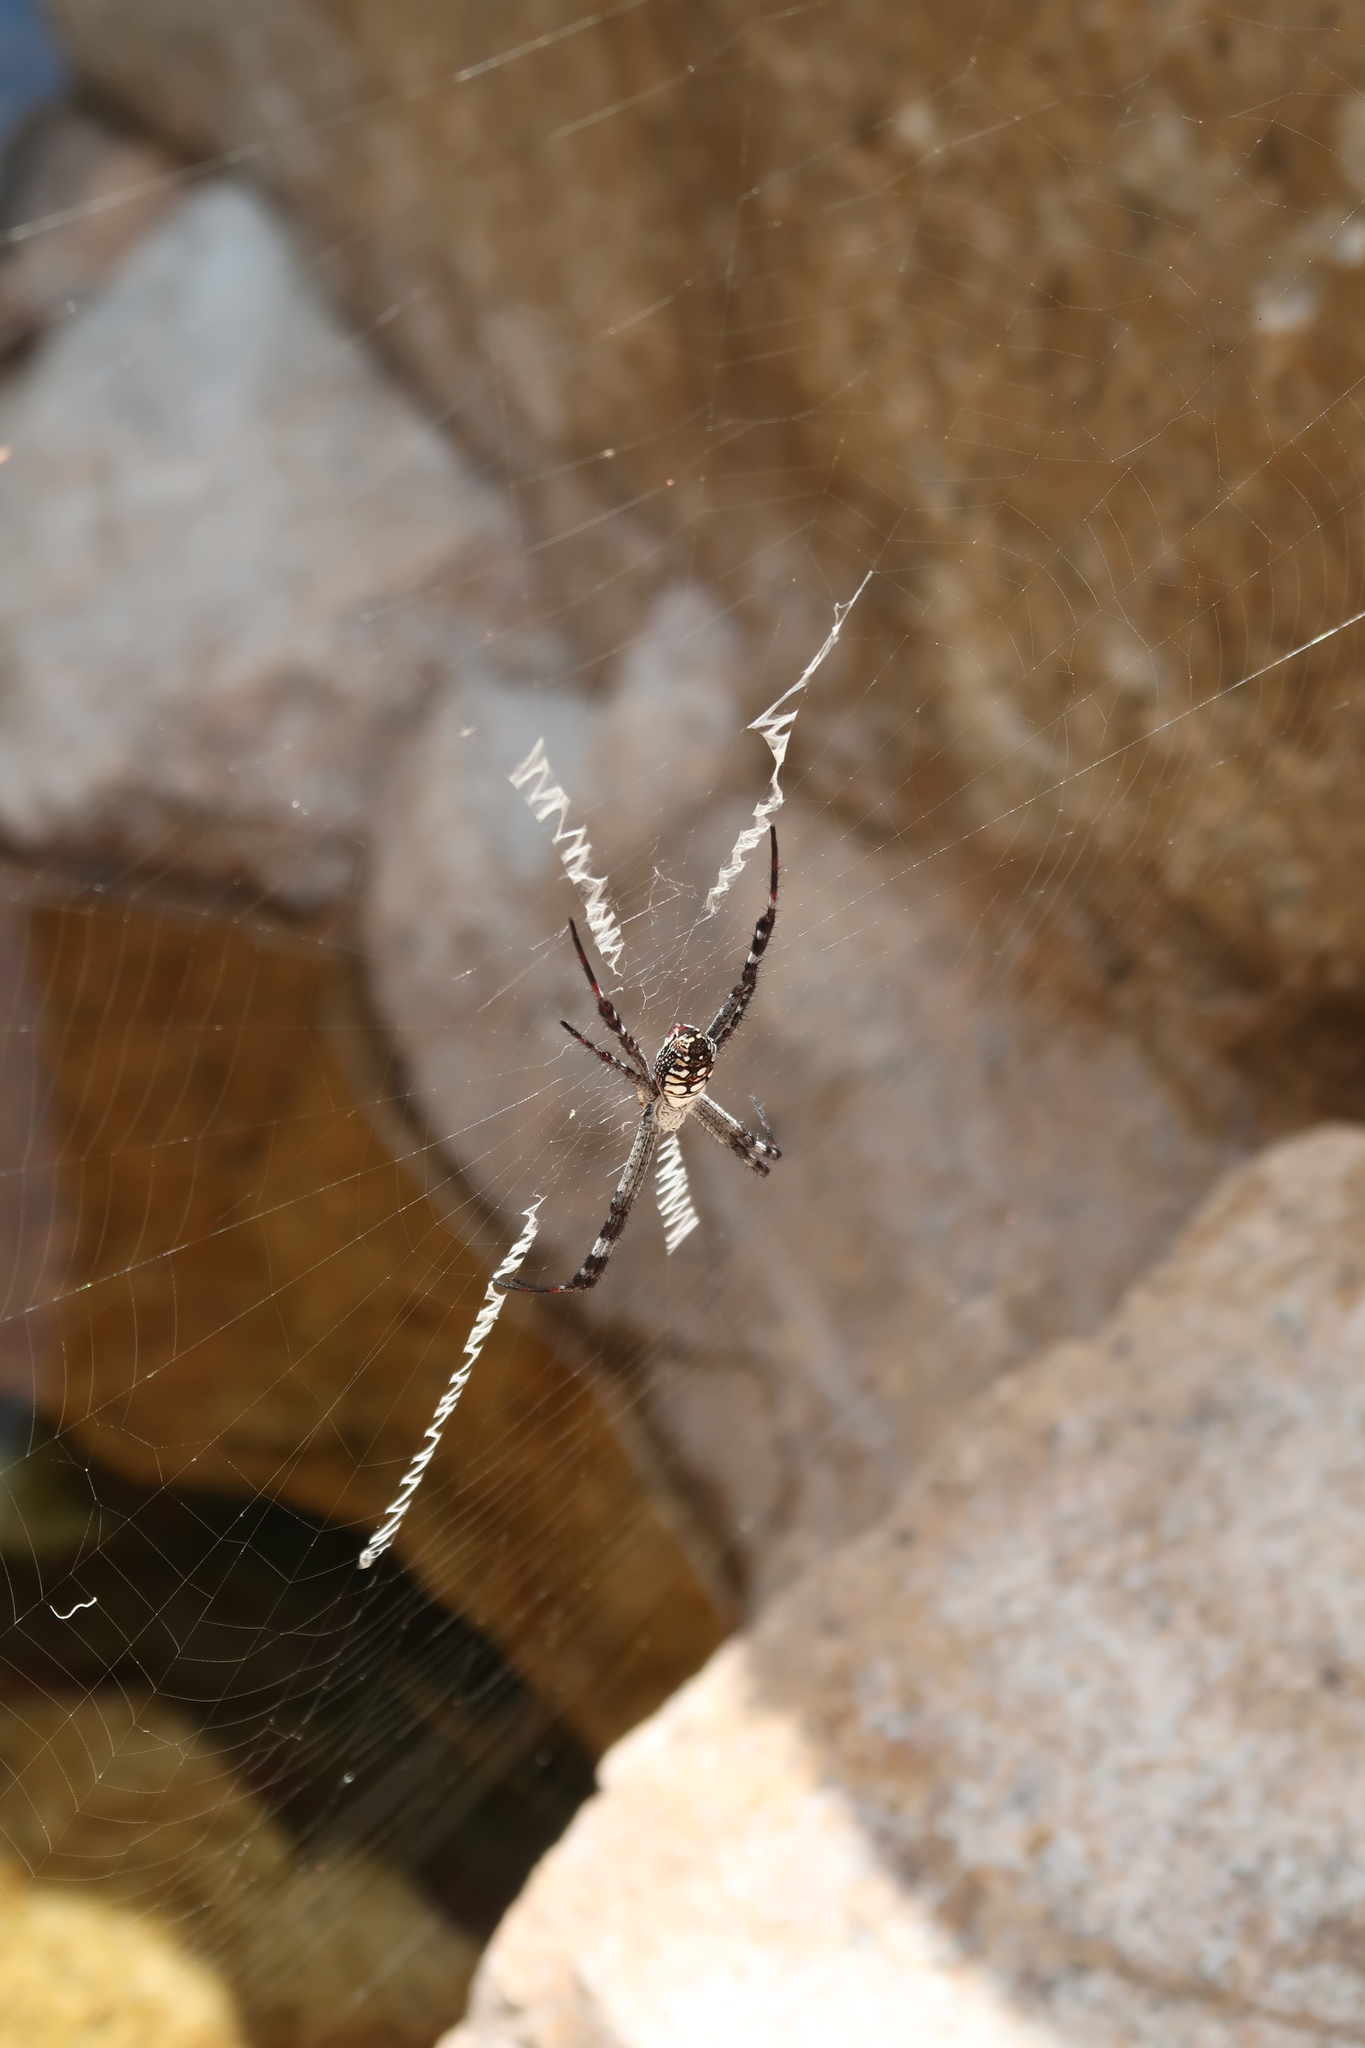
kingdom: Animalia
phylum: Arthropoda
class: Arachnida
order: Araneae
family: Araneidae
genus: Argiope
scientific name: Argiope picta
